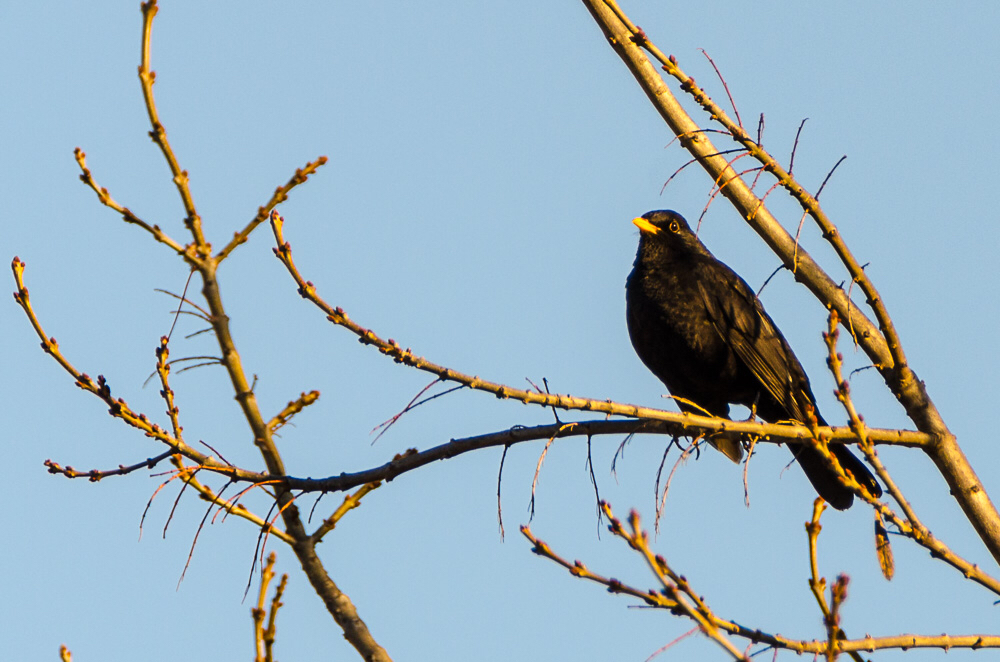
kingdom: Animalia
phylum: Chordata
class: Aves
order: Passeriformes
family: Turdidae
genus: Turdus
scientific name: Turdus merula
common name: Common blackbird
